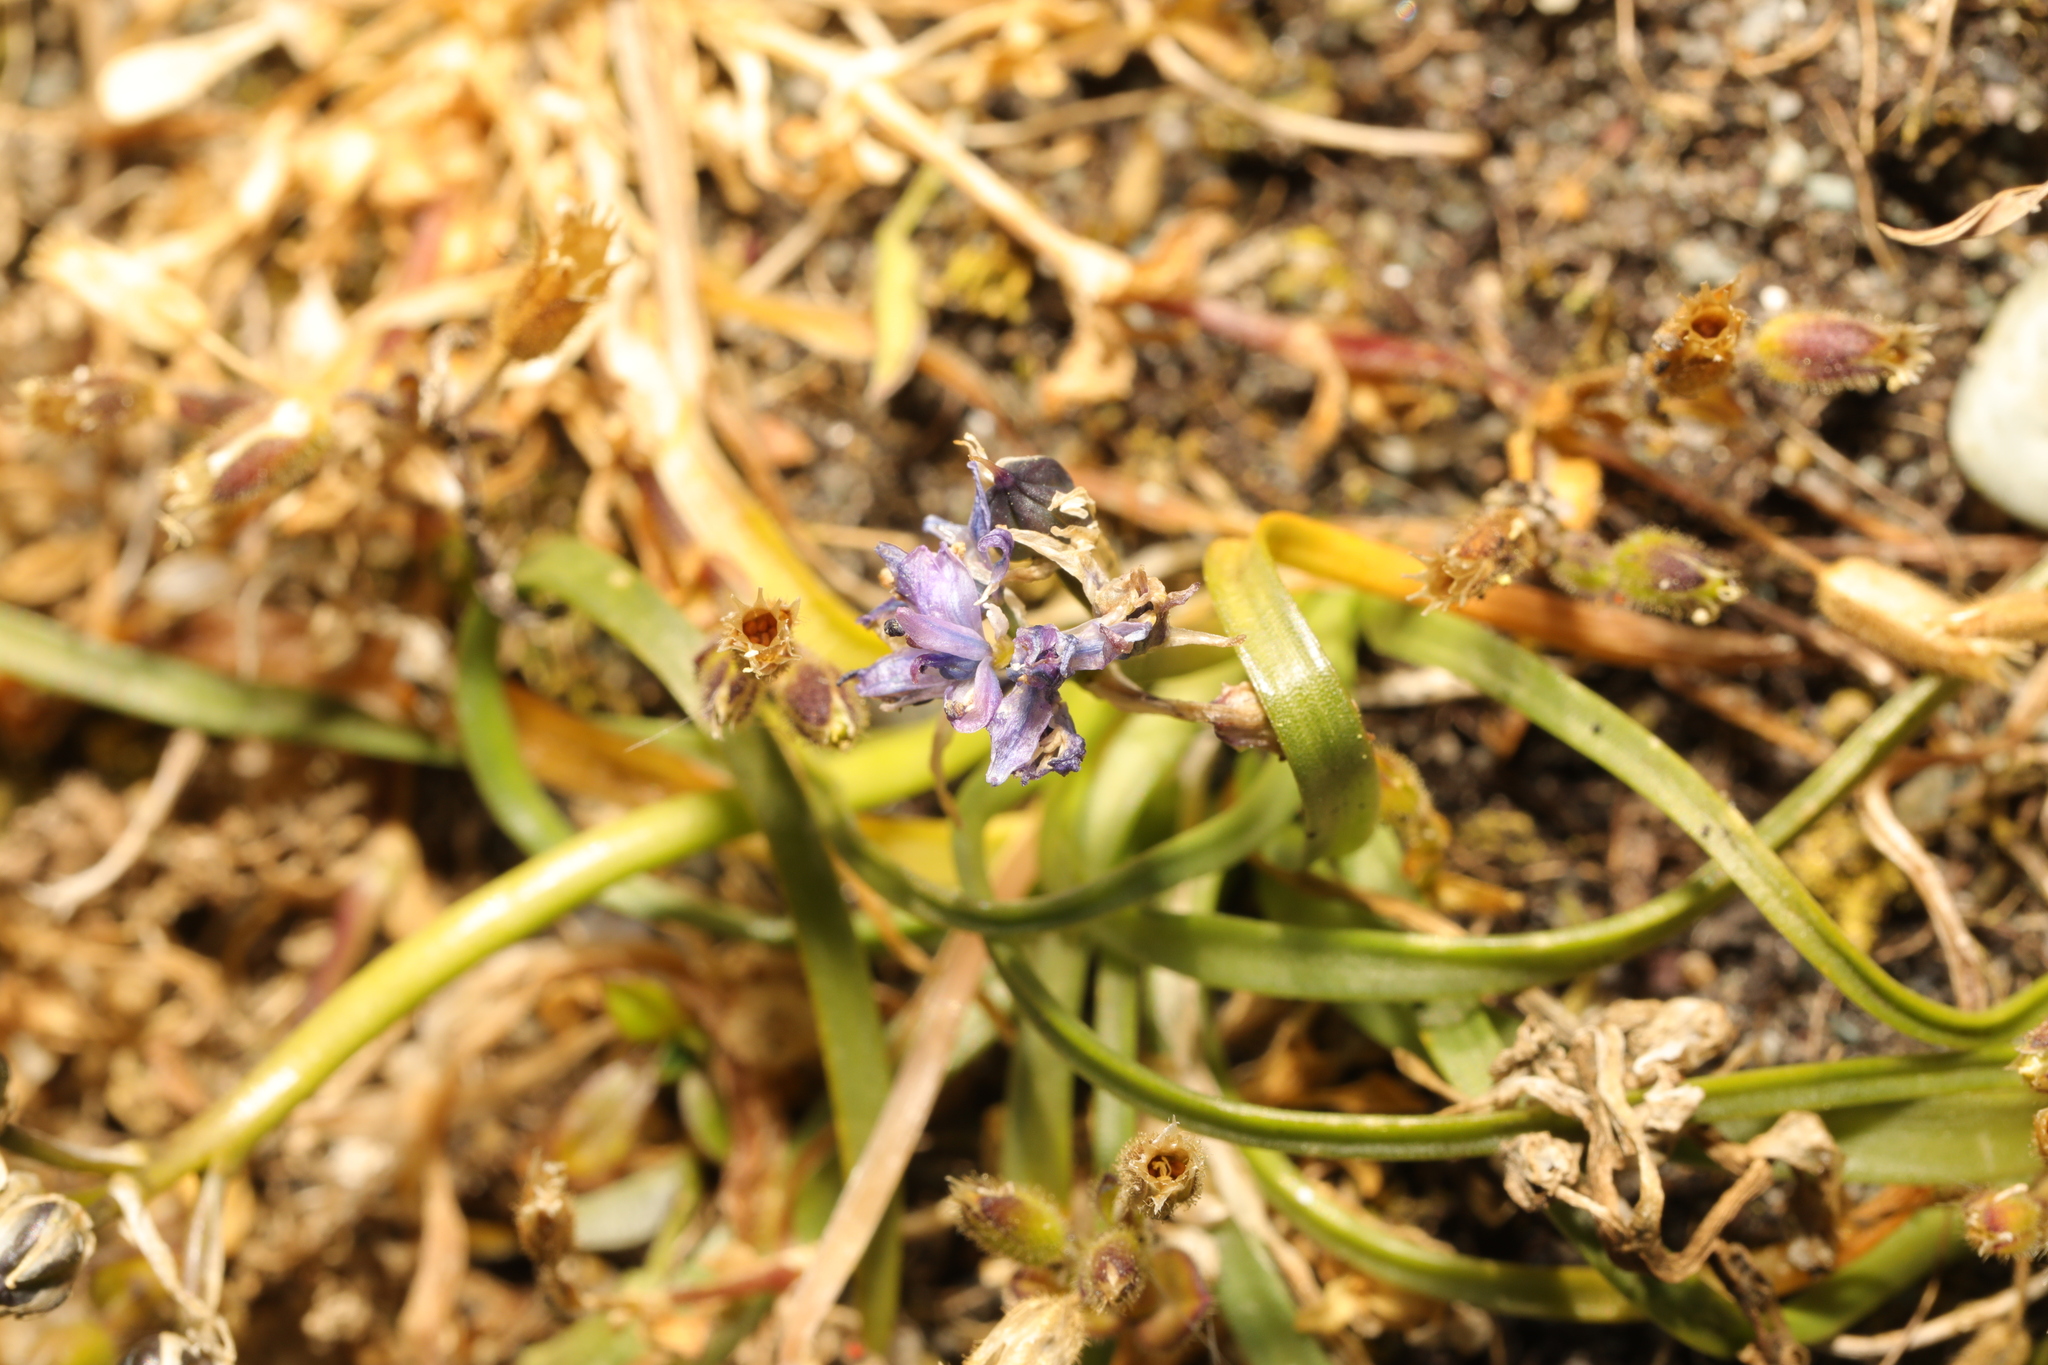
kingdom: Plantae
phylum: Tracheophyta
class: Liliopsida
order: Asparagales
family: Asparagaceae
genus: Scilla
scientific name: Scilla verna
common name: Spring squill
